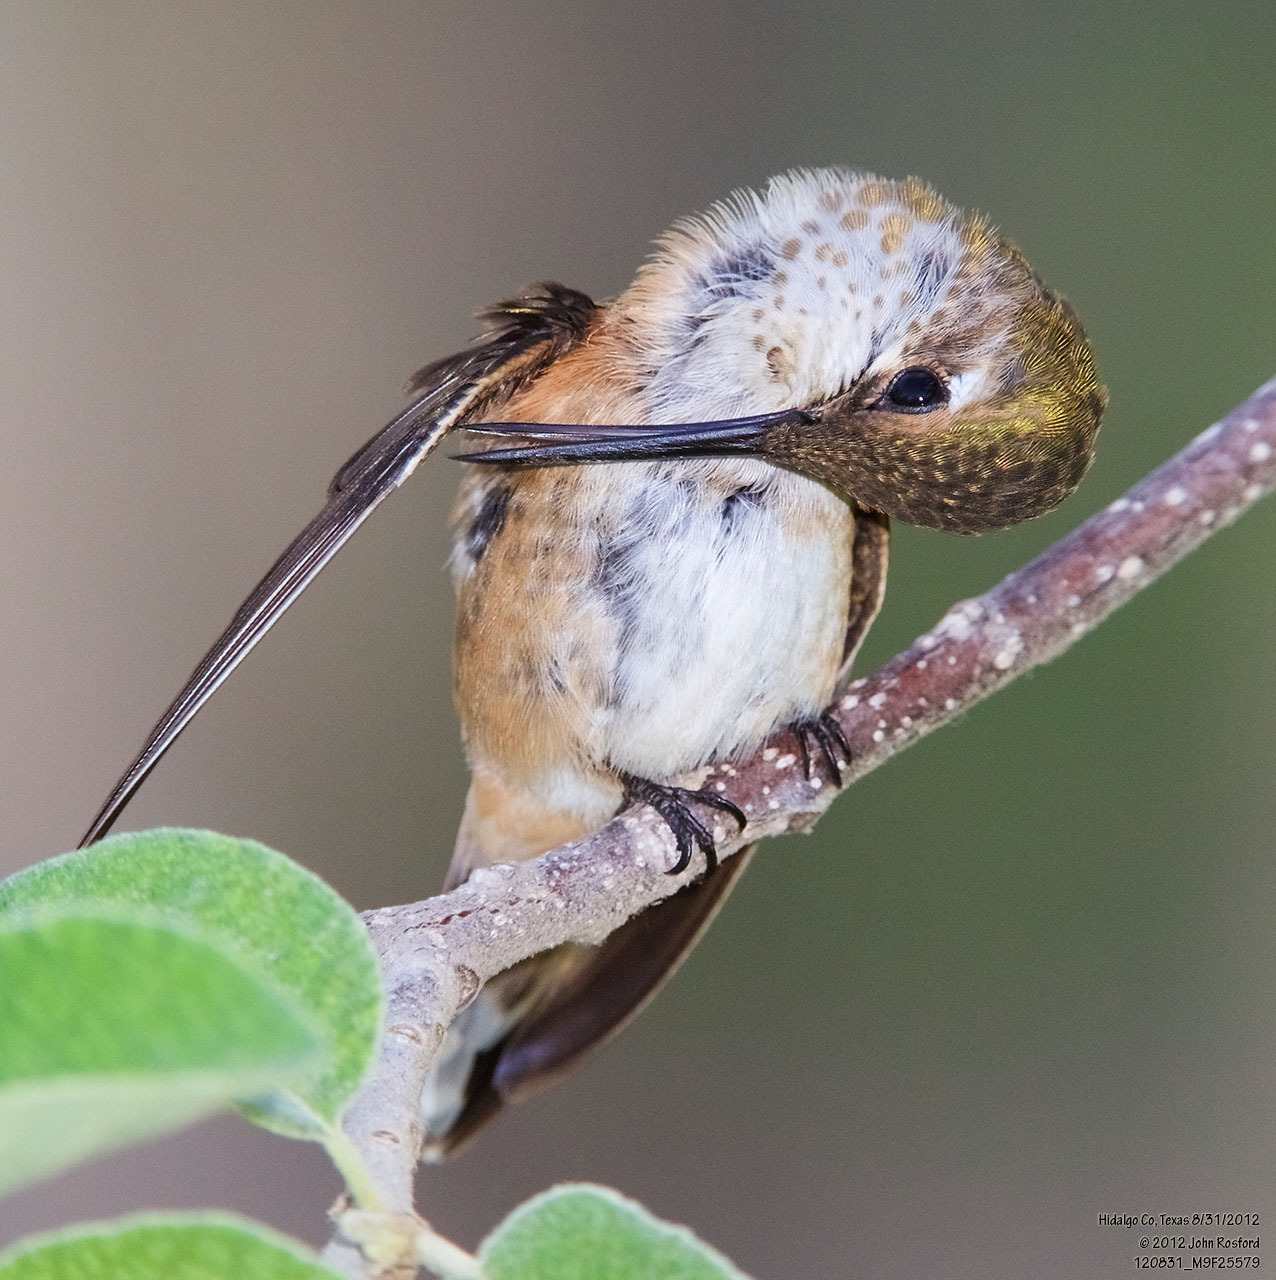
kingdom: Animalia
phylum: Chordata
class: Aves
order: Apodiformes
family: Trochilidae
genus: Selasphorus
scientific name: Selasphorus rufus
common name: Rufous hummingbird
